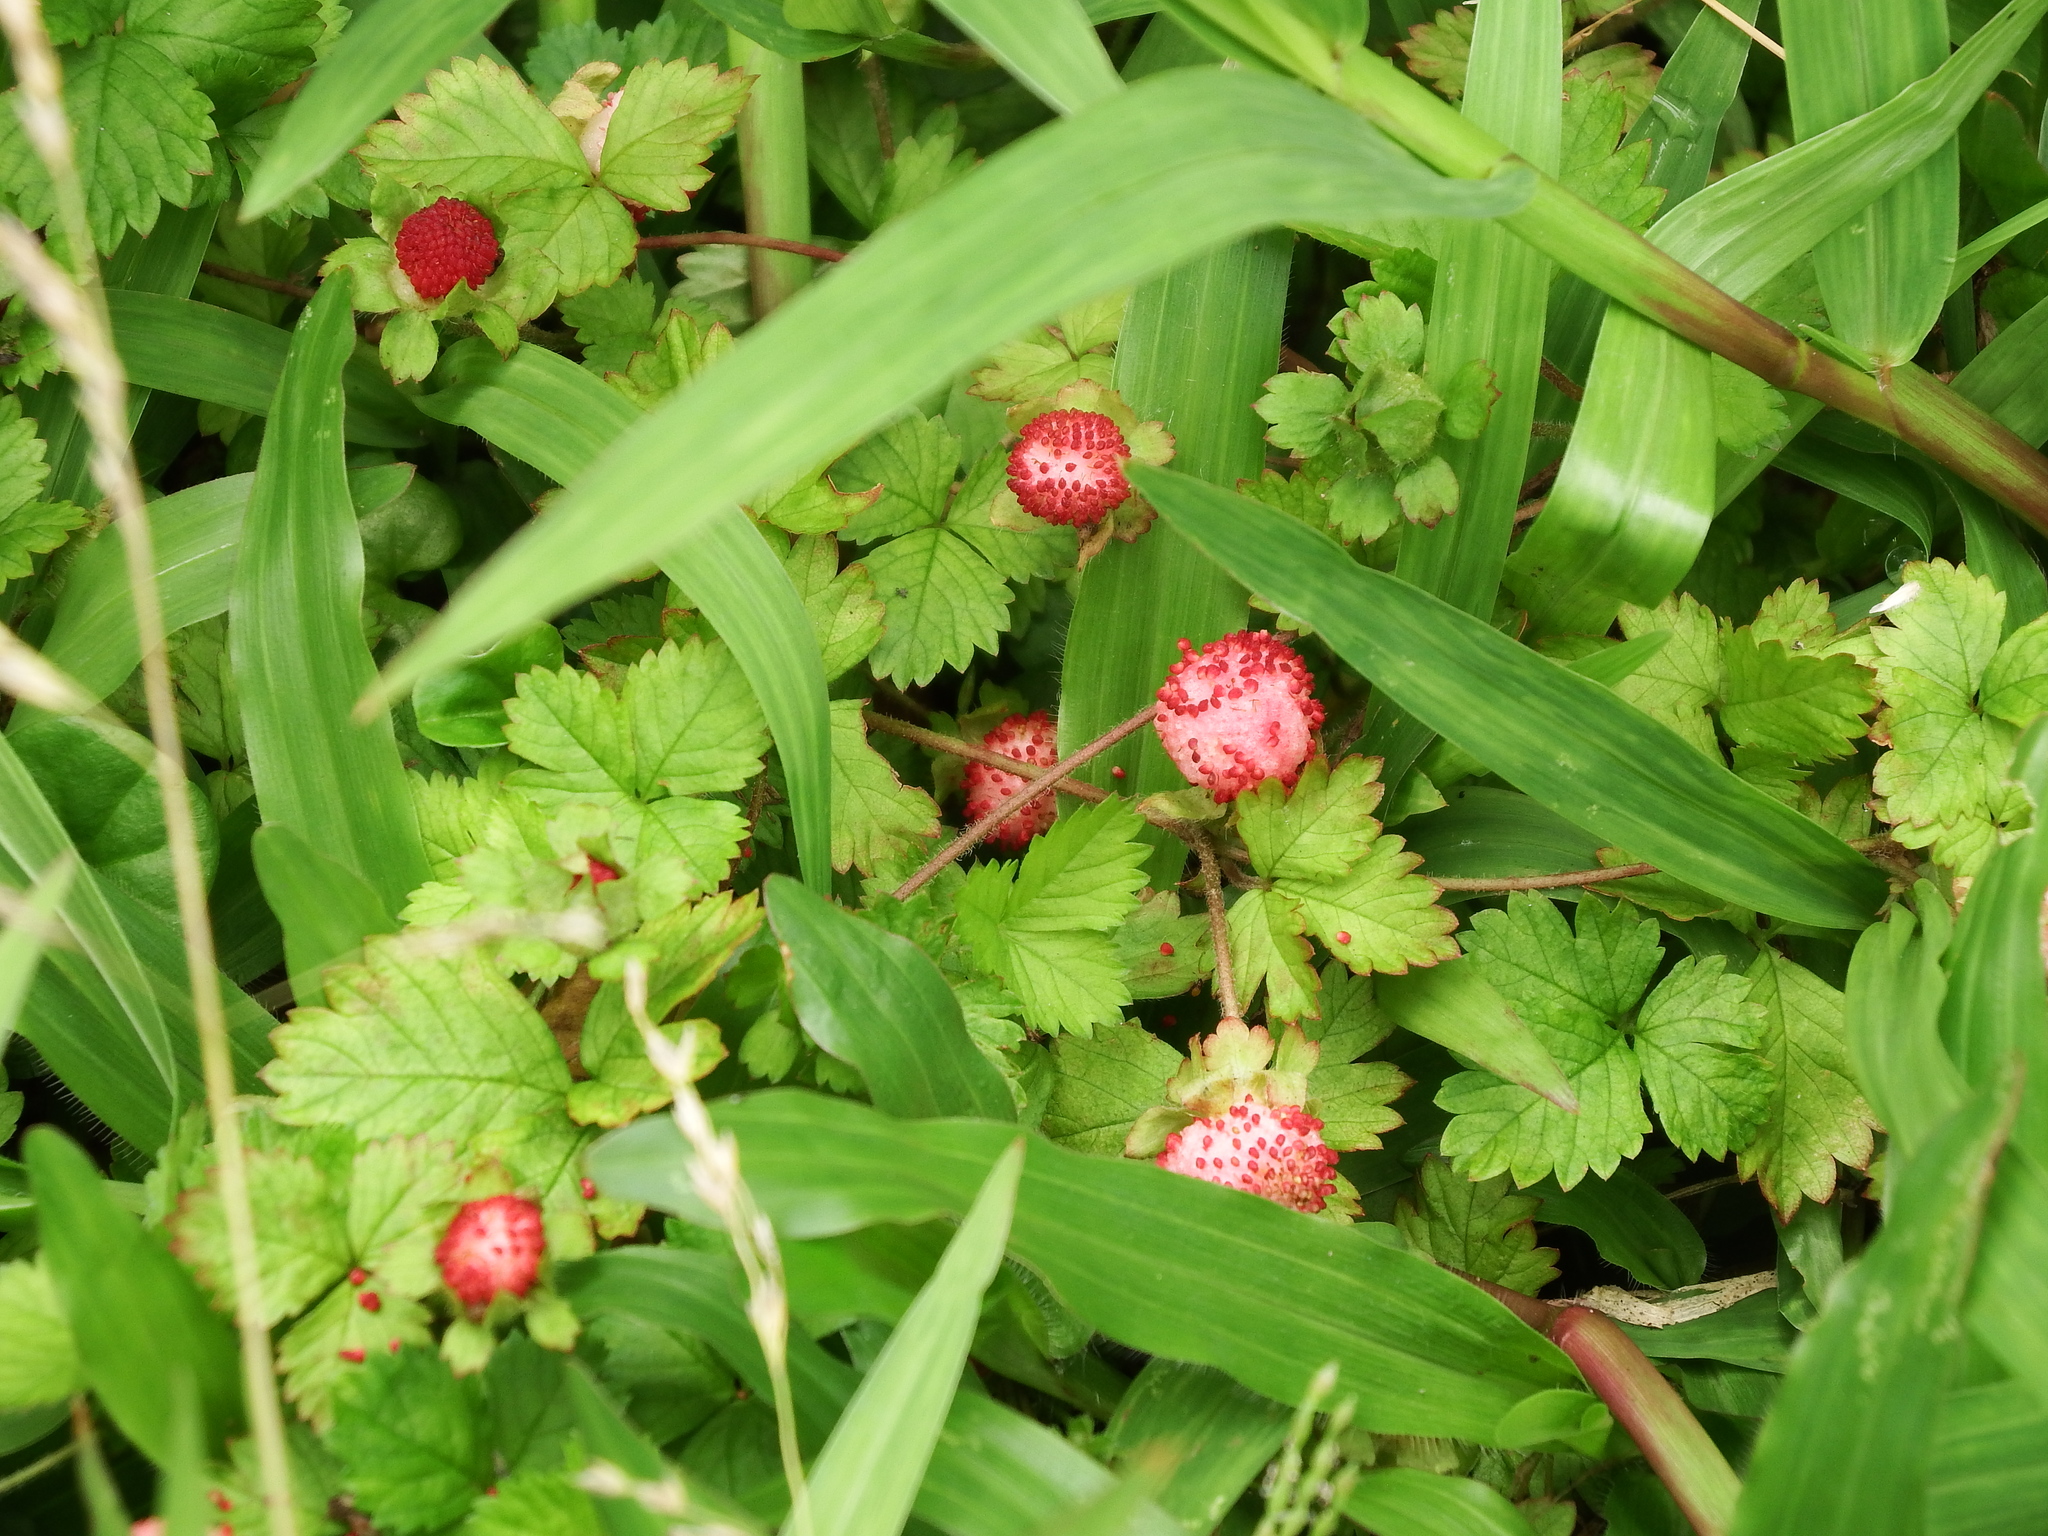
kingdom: Plantae
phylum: Tracheophyta
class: Magnoliopsida
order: Rosales
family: Rosaceae
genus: Potentilla
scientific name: Potentilla wallichiana
